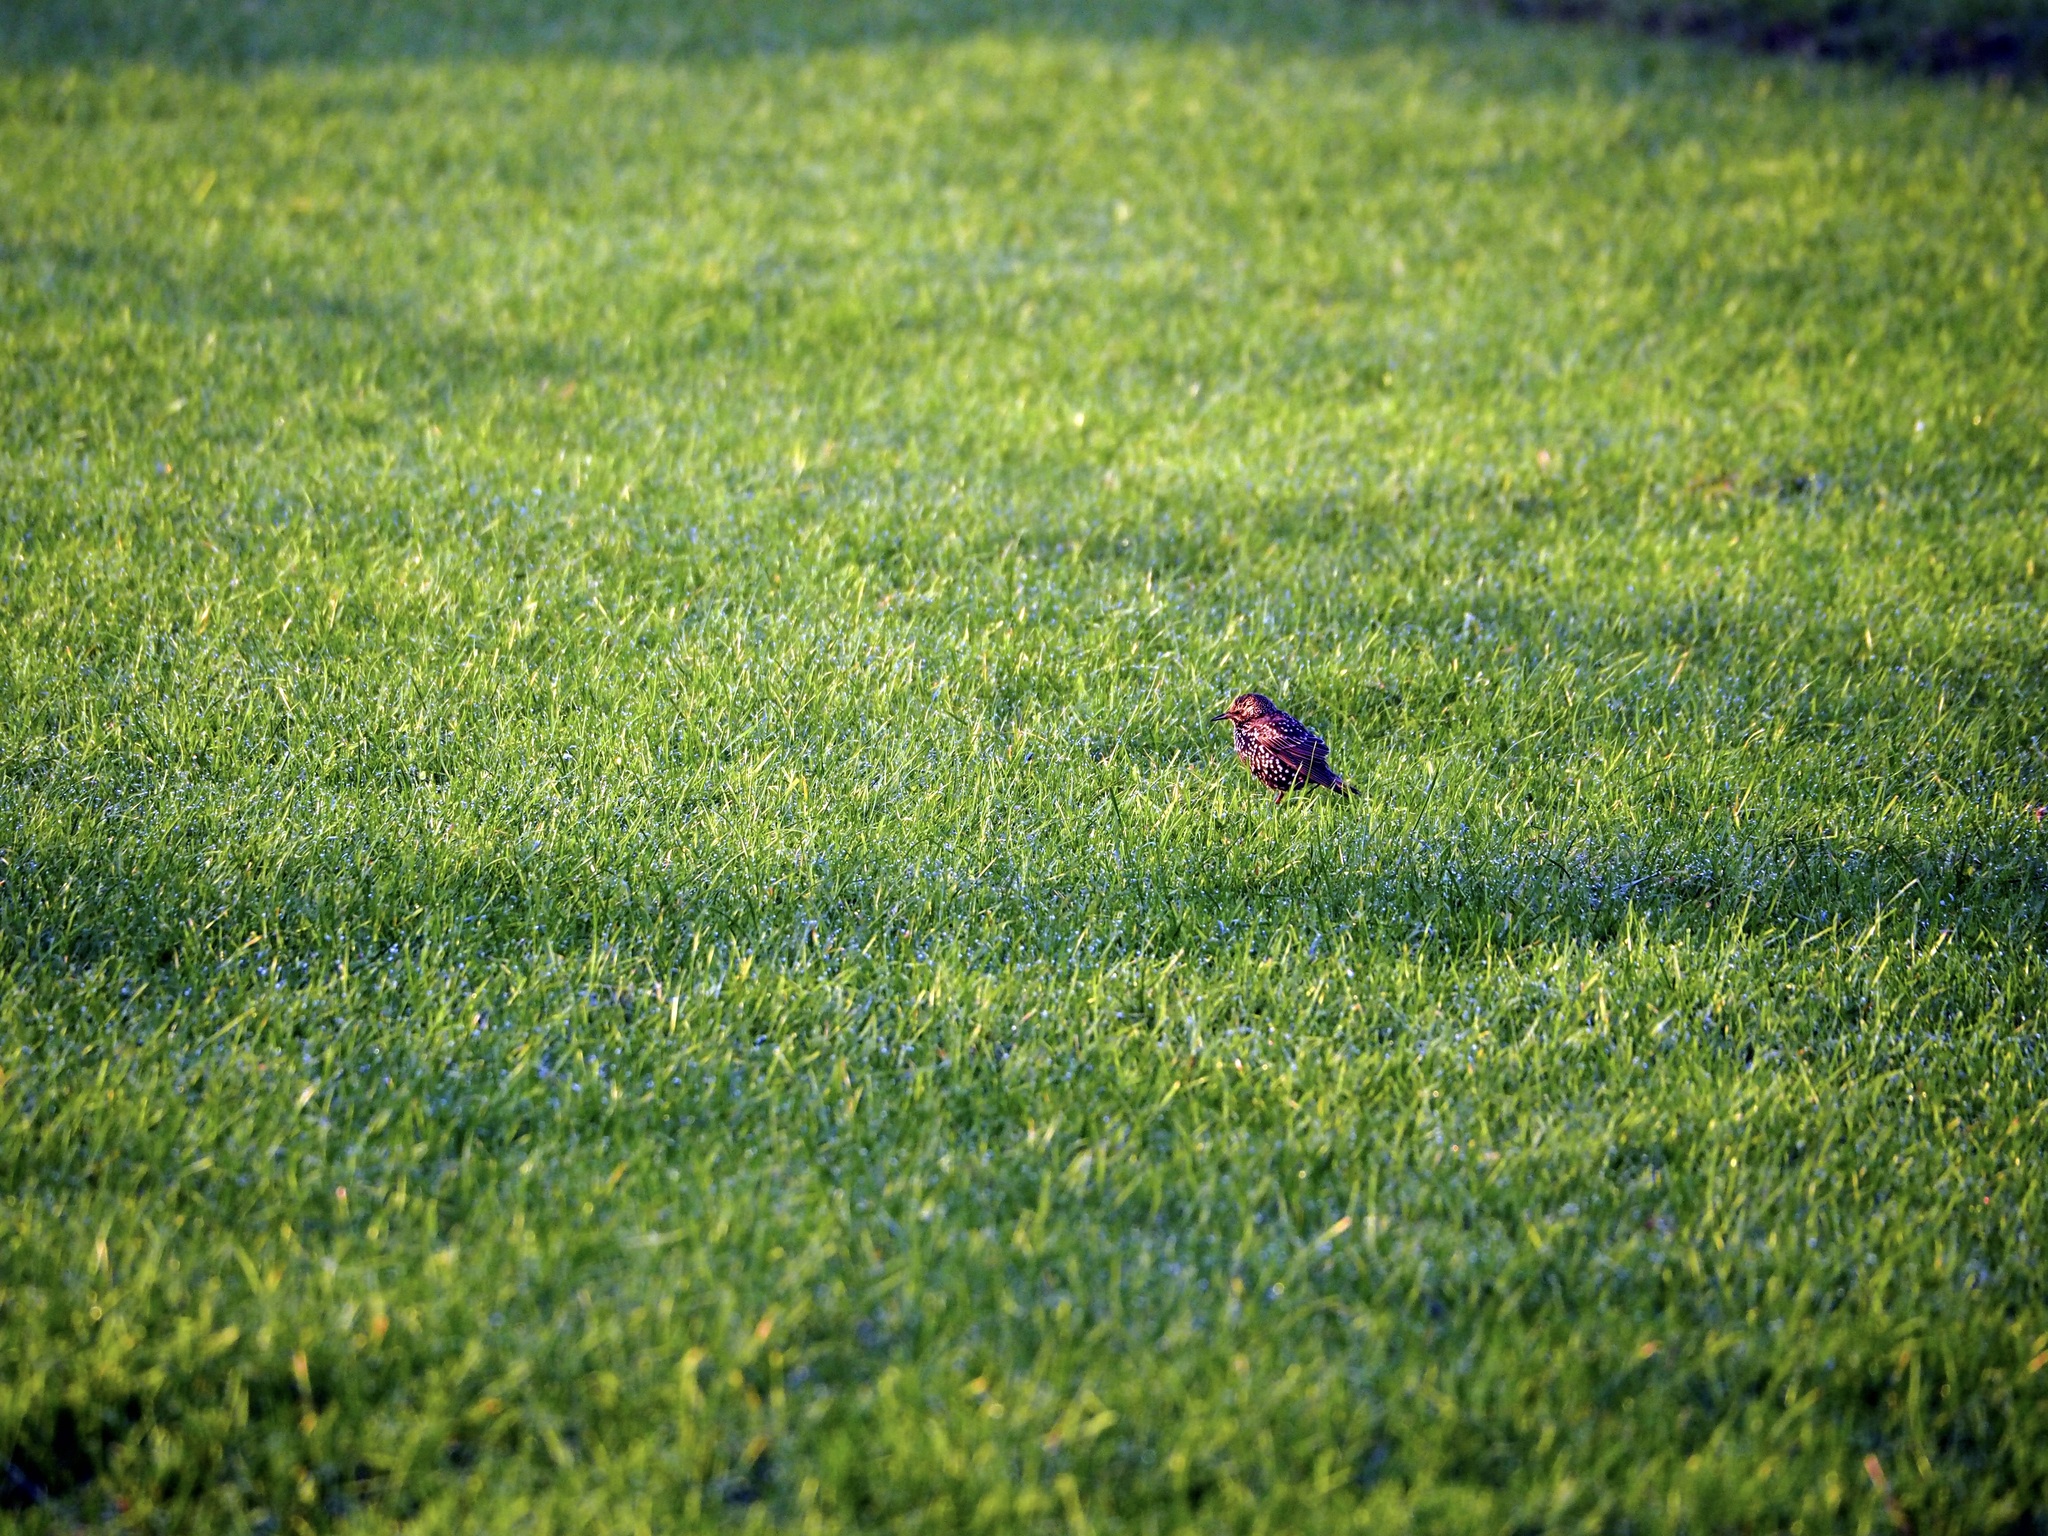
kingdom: Animalia
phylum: Chordata
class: Aves
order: Passeriformes
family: Sturnidae
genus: Sturnus
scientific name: Sturnus vulgaris
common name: Common starling
